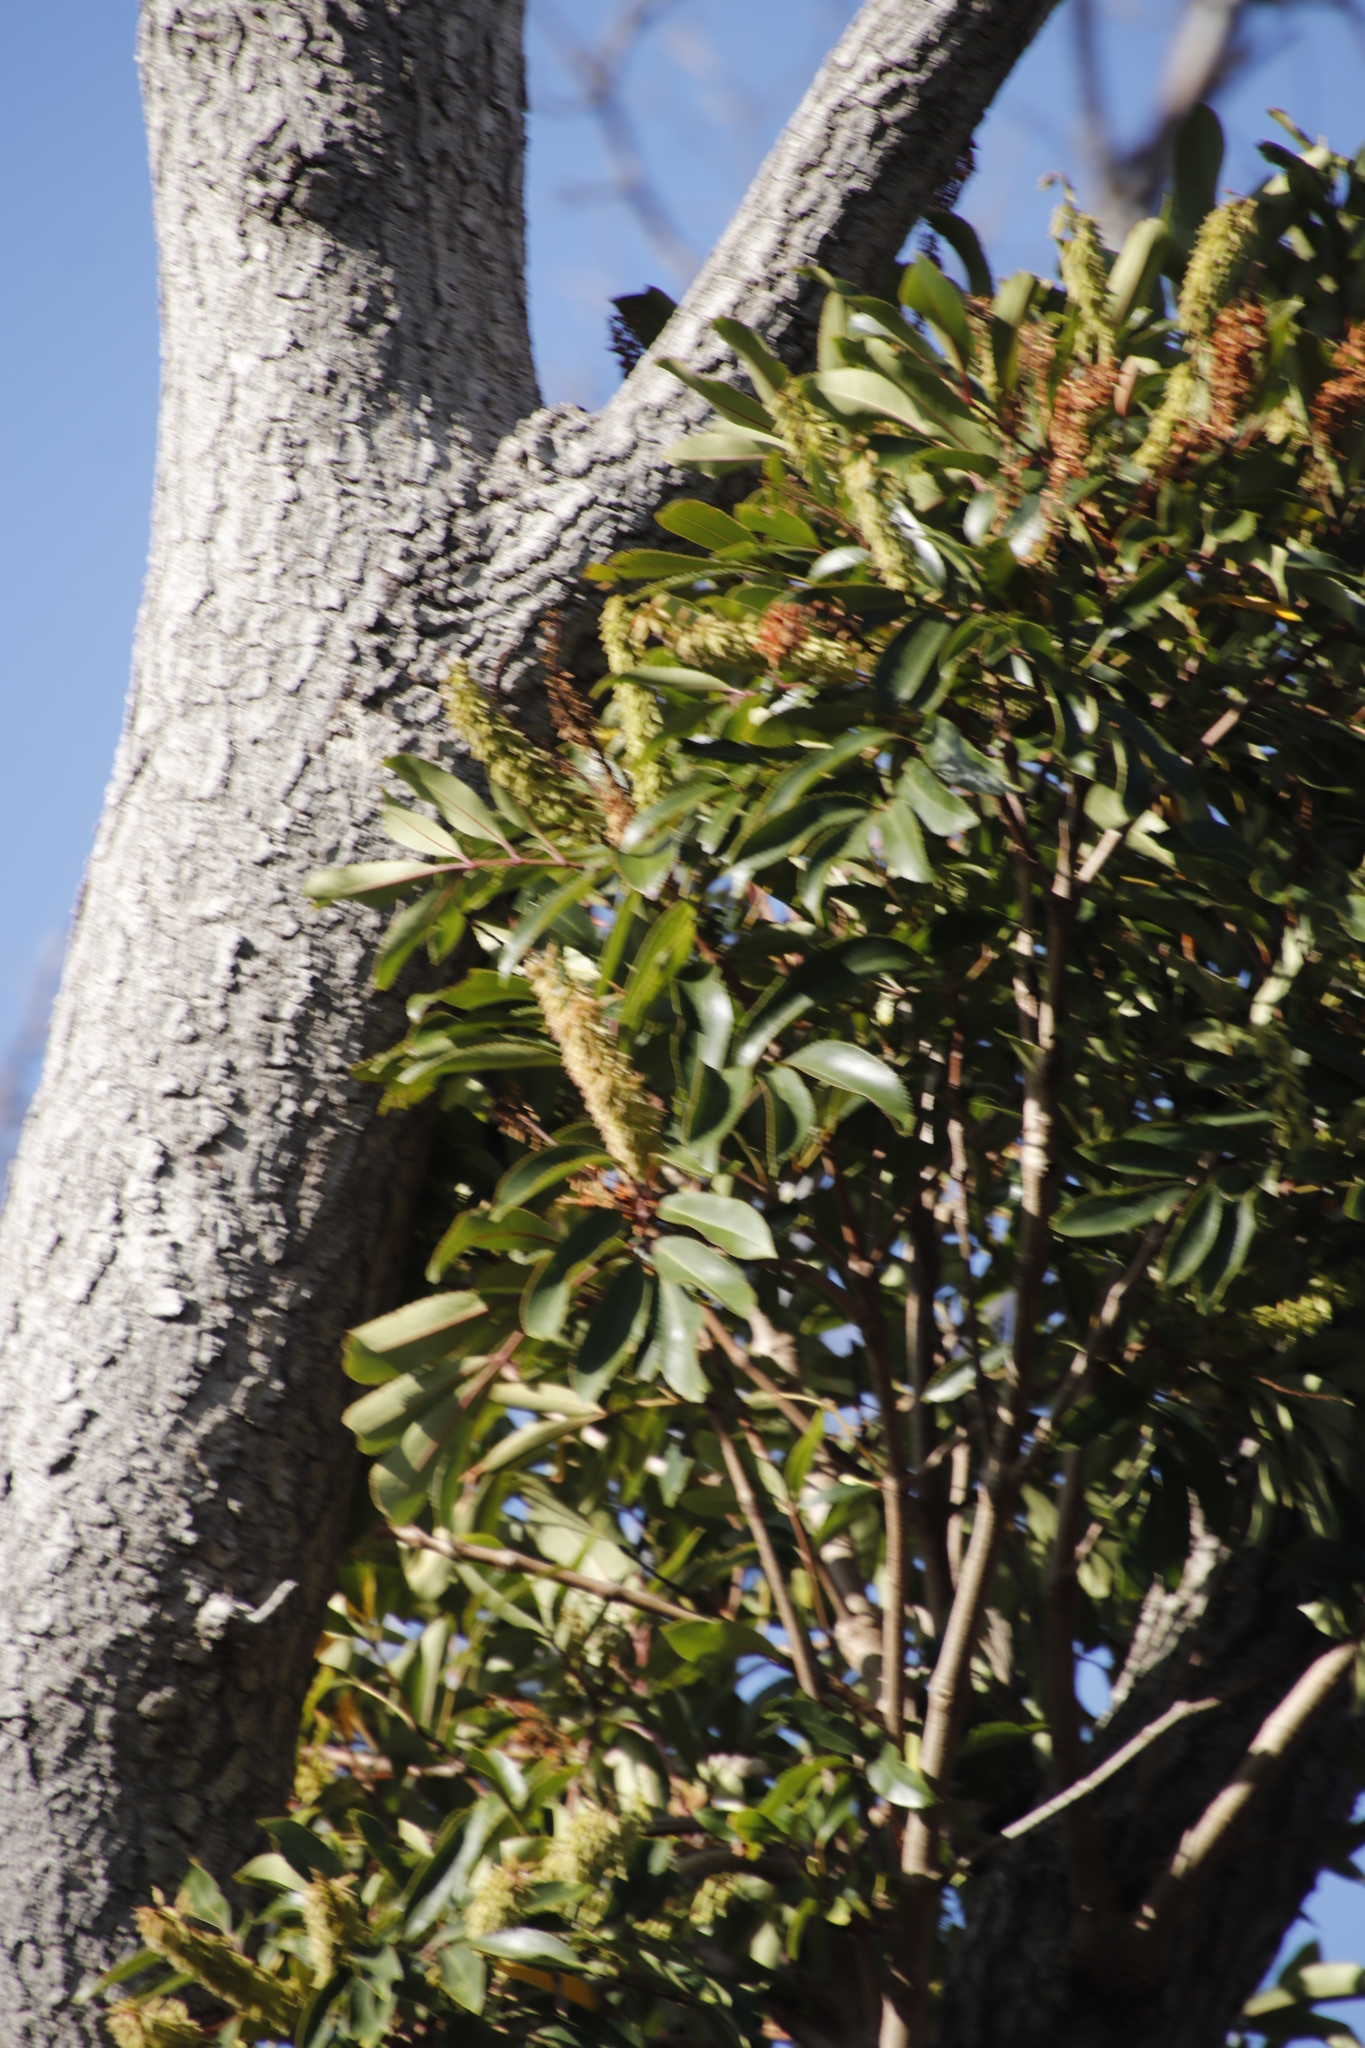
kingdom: Plantae
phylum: Tracheophyta
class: Magnoliopsida
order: Oxalidales
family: Cunoniaceae
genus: Cunonia
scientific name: Cunonia capensis
